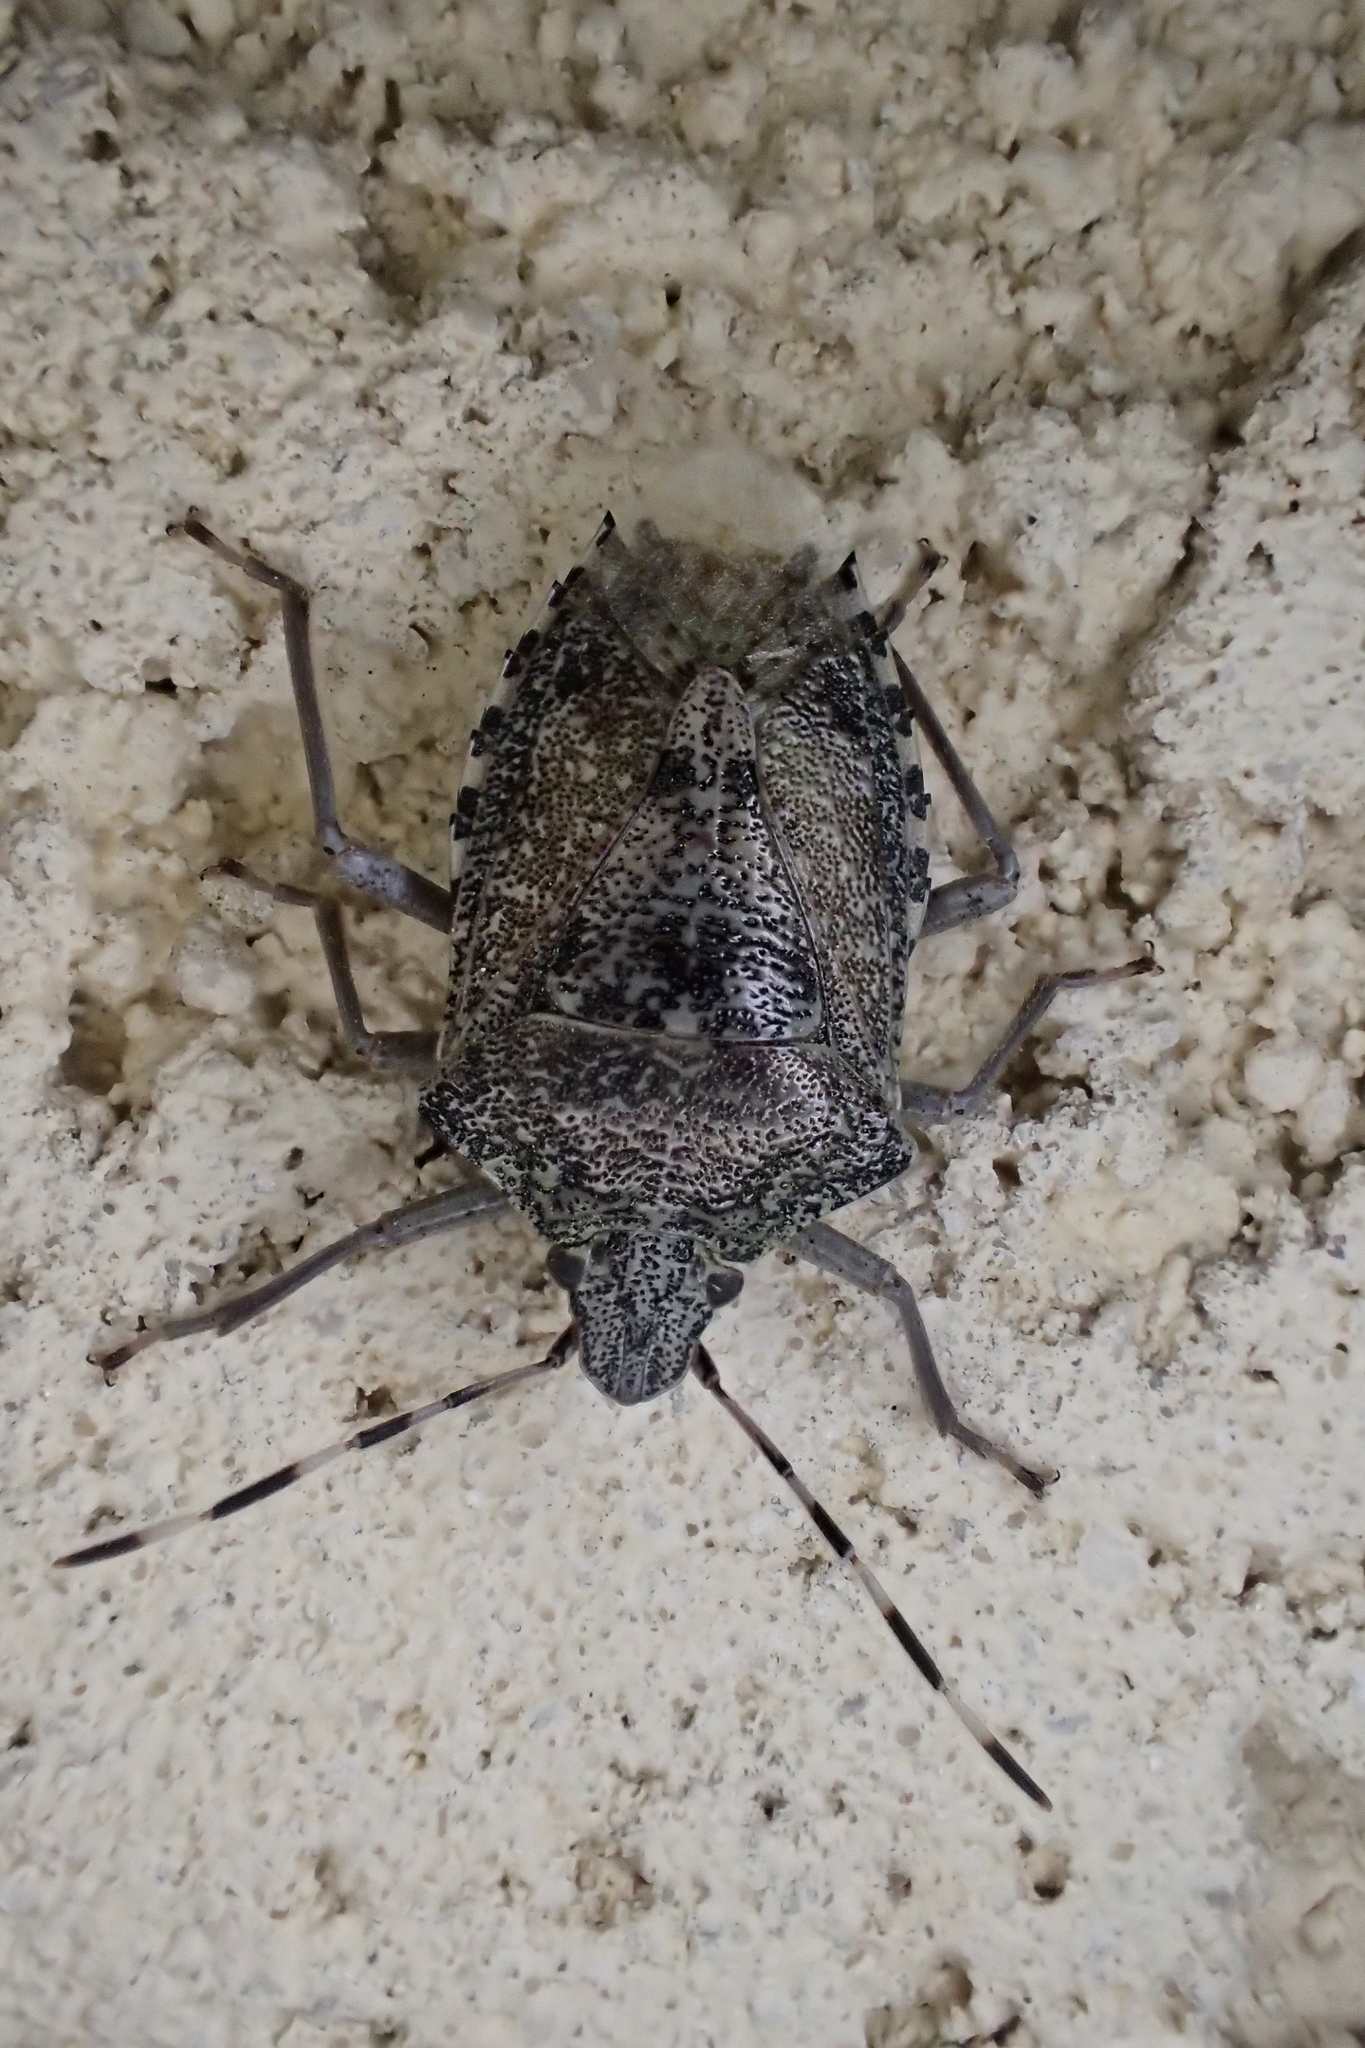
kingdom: Animalia
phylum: Arthropoda
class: Insecta
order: Hemiptera
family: Pentatomidae
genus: Rhaphigaster
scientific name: Rhaphigaster nebulosa
